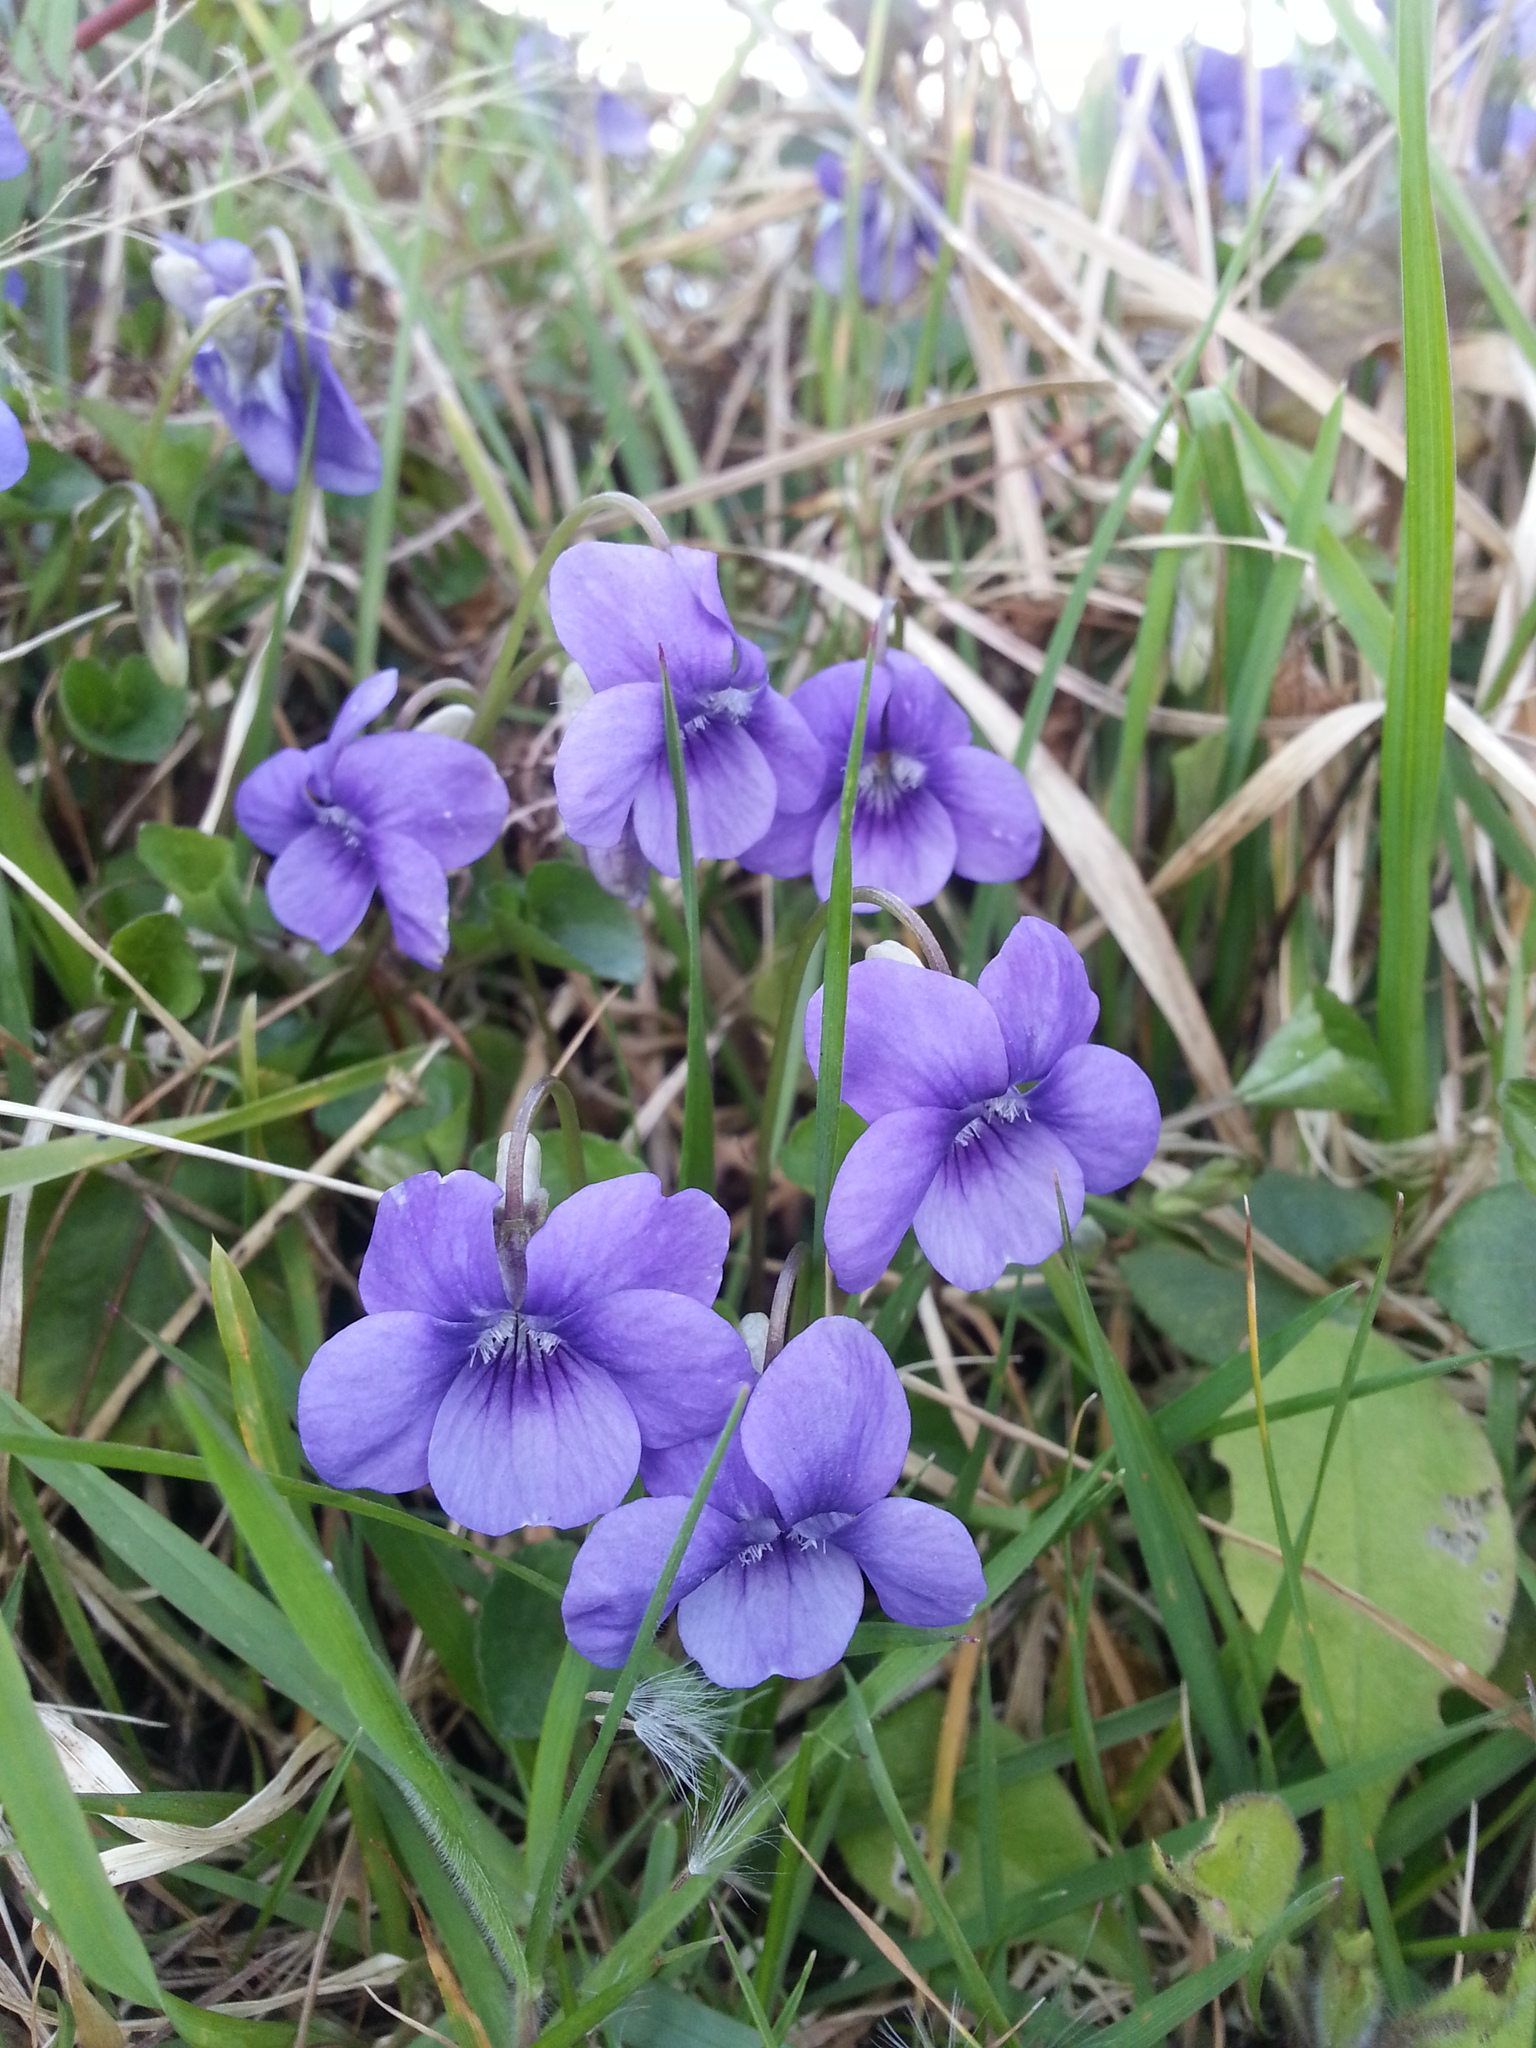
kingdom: Plantae
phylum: Tracheophyta
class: Magnoliopsida
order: Malpighiales
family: Violaceae
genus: Viola
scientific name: Viola riviniana
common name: Common dog-violet
